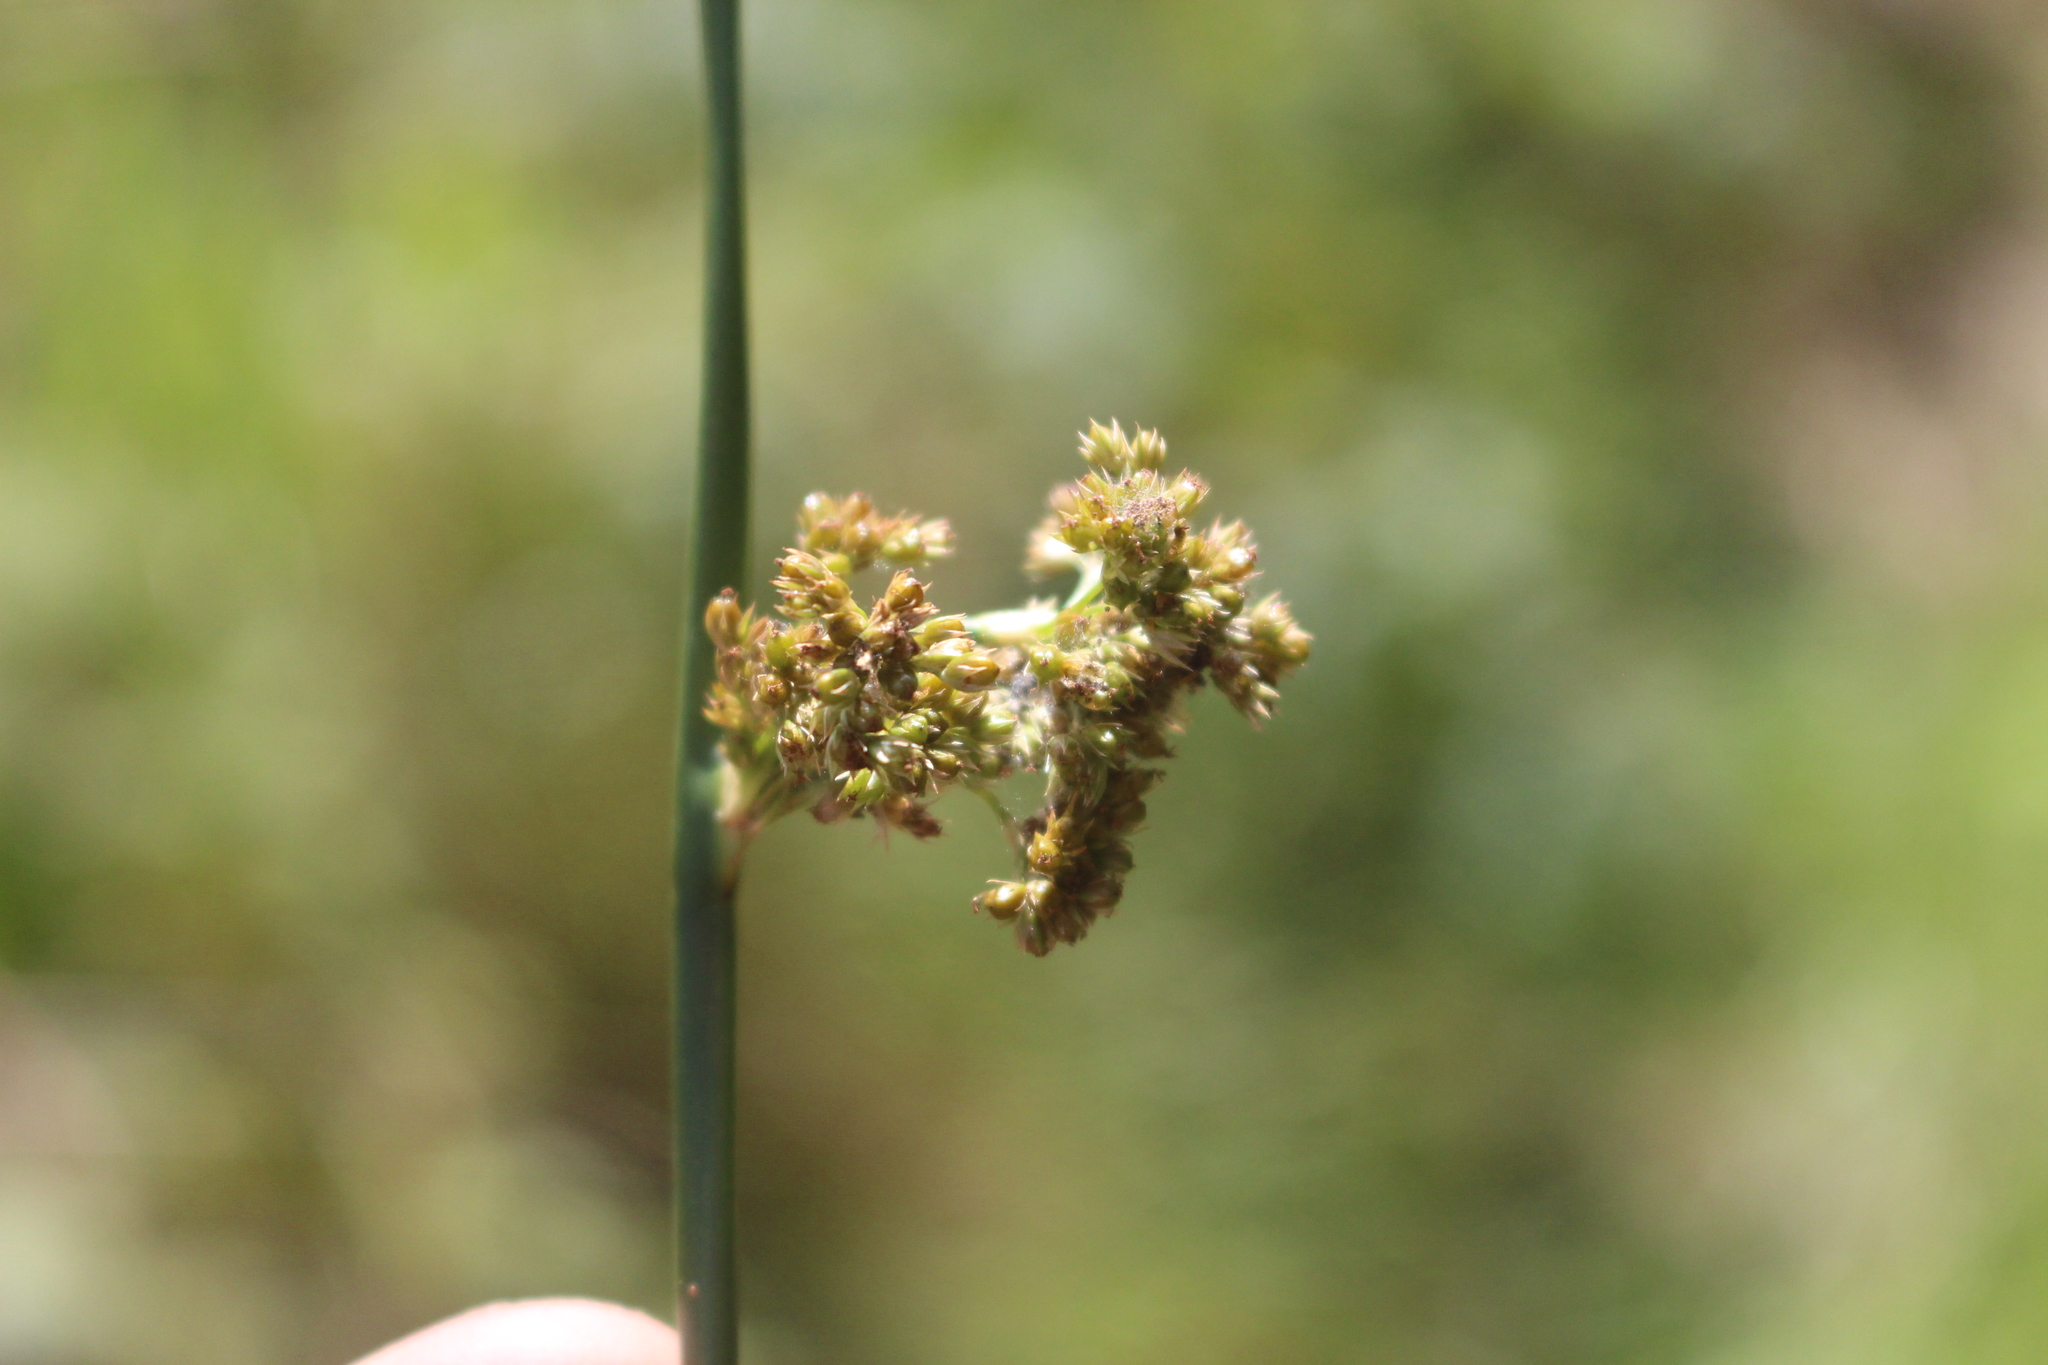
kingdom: Plantae
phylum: Tracheophyta
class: Liliopsida
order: Poales
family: Juncaceae
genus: Juncus
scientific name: Juncus effusus
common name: Soft rush
